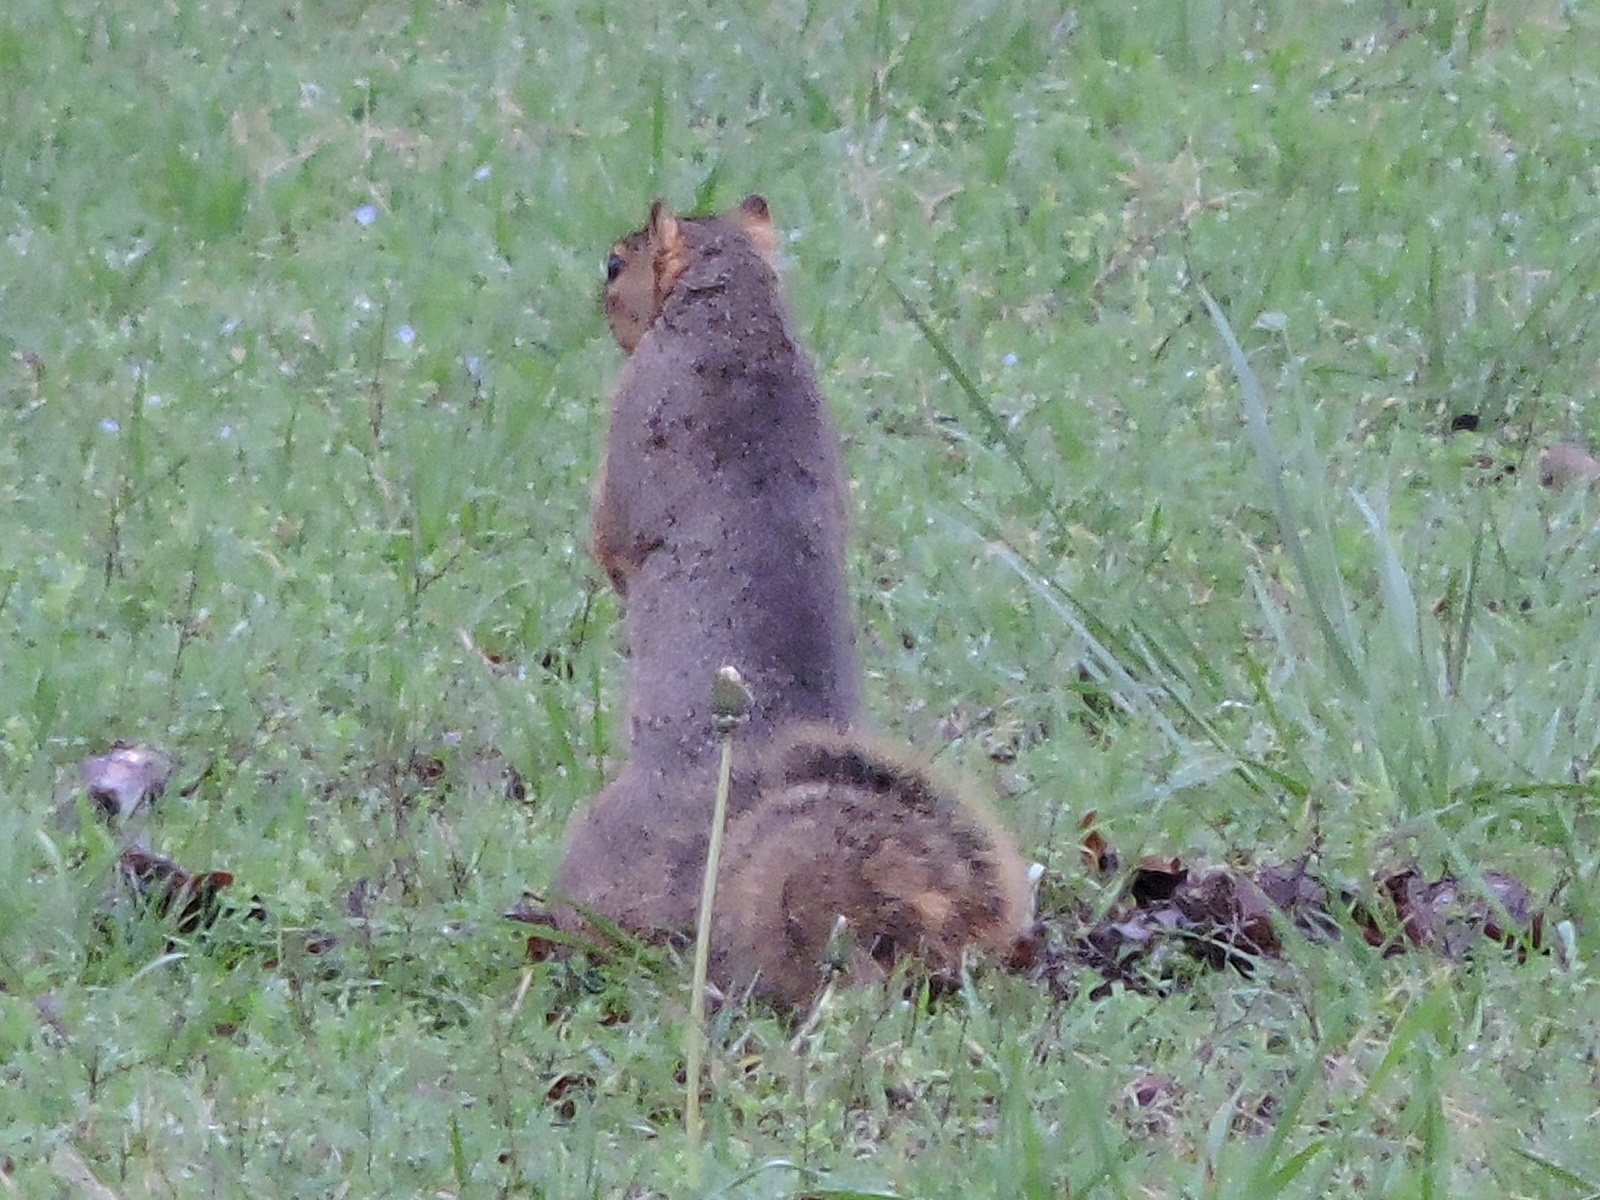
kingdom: Animalia
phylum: Chordata
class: Mammalia
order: Rodentia
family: Sciuridae
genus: Sciurus
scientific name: Sciurus niger
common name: Fox squirrel
